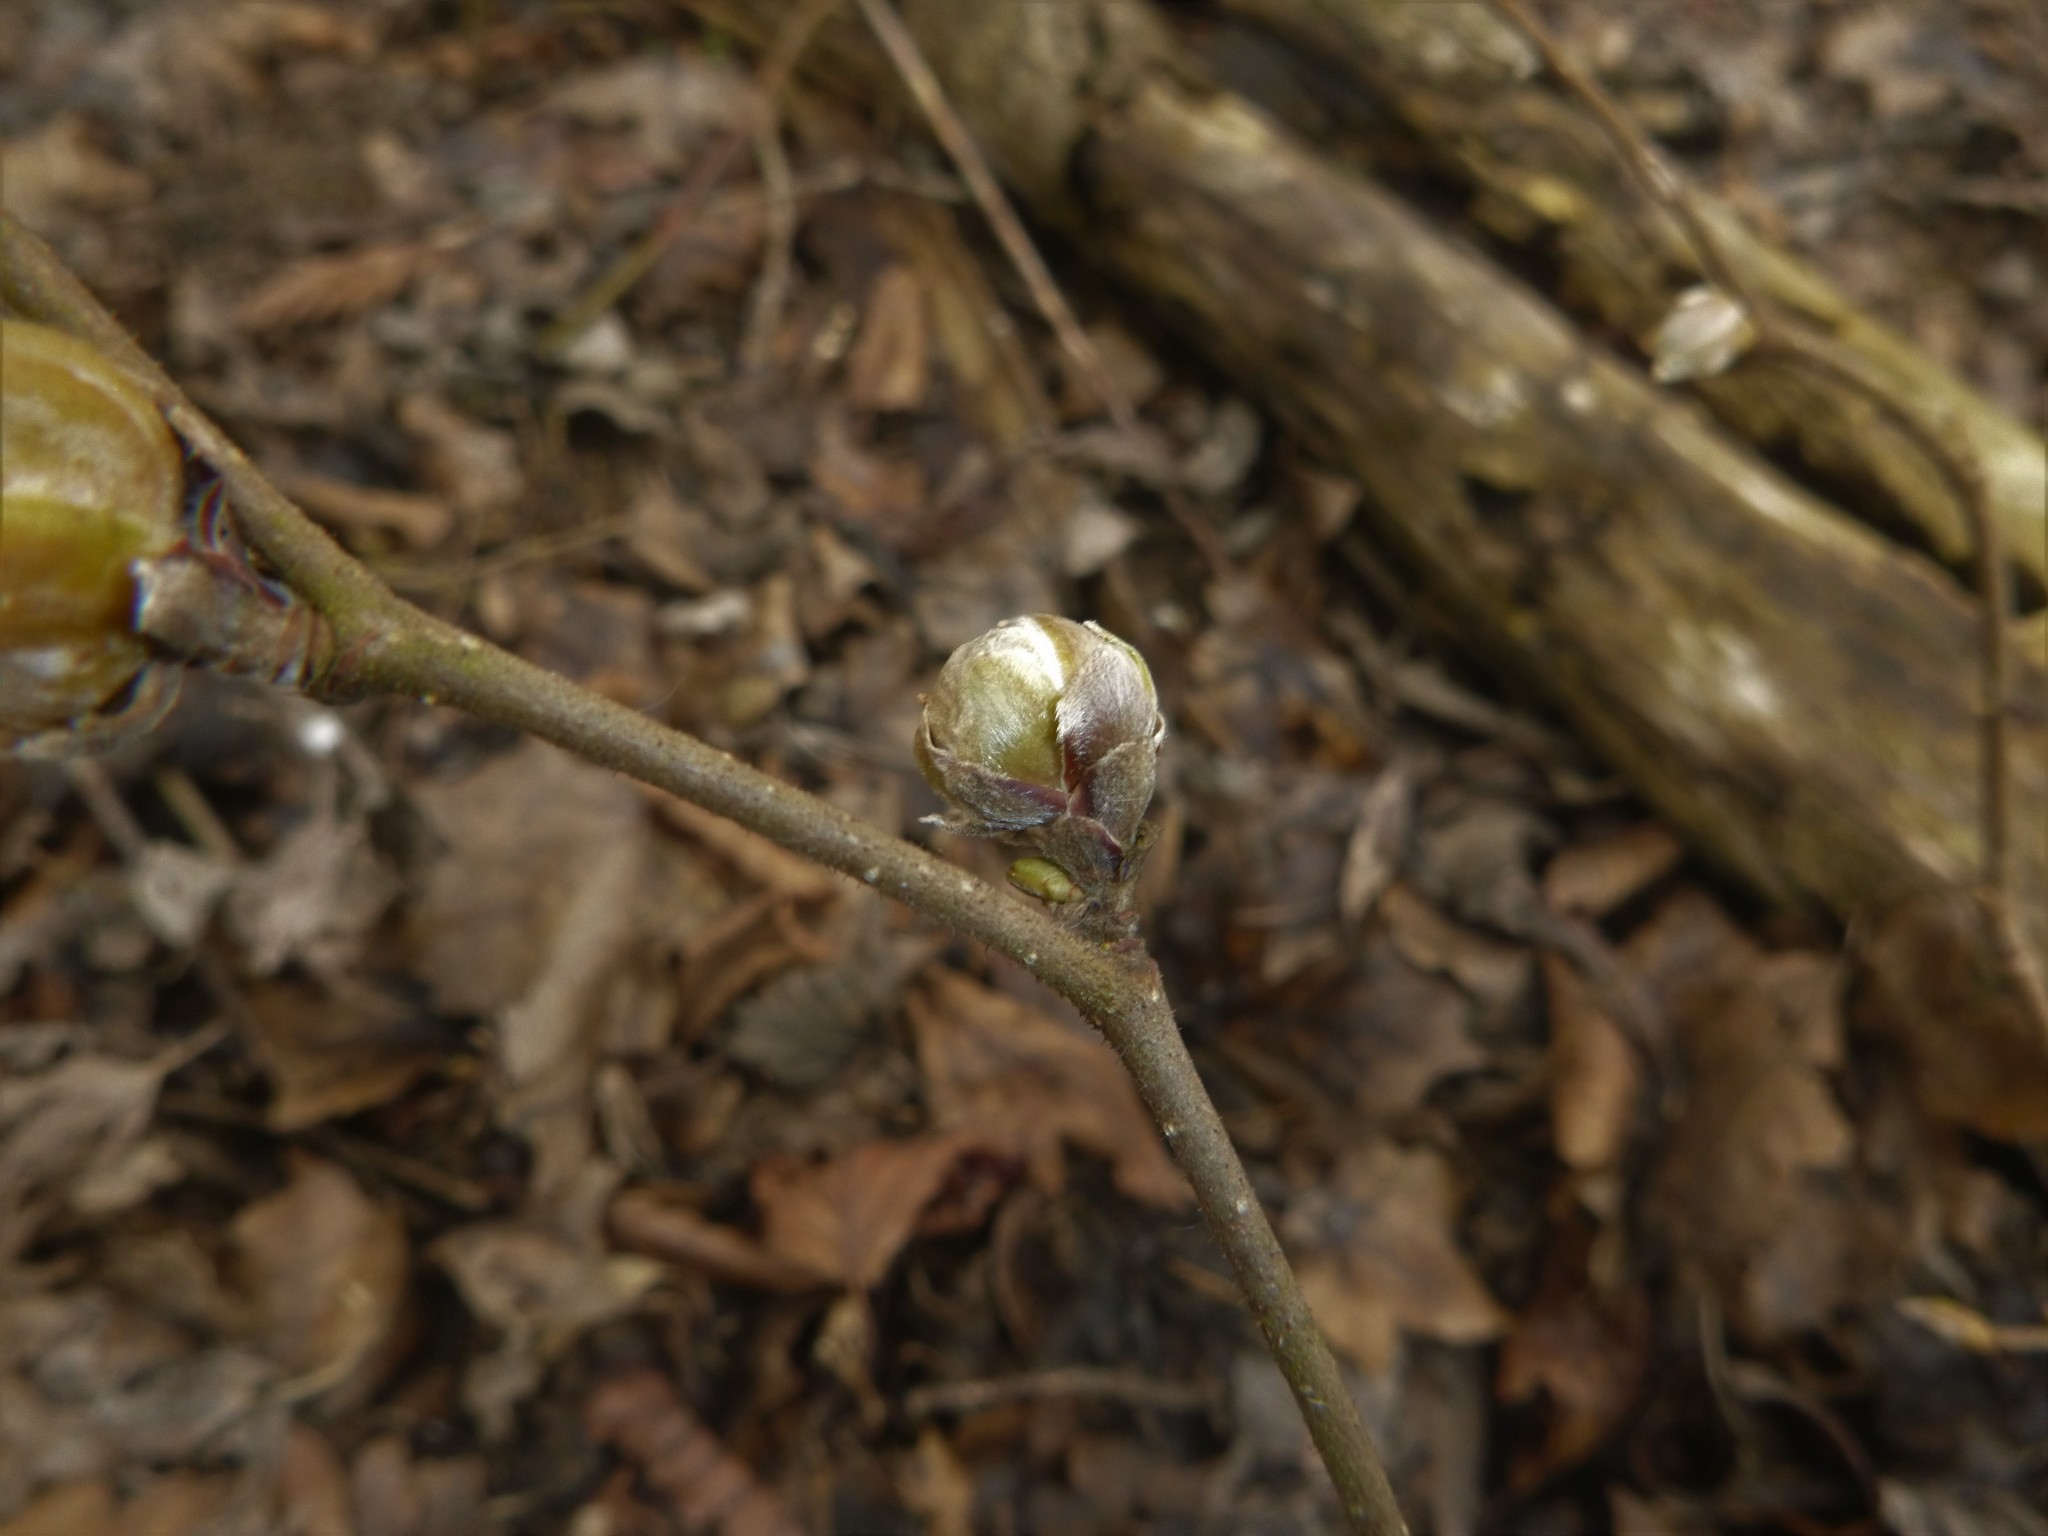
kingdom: Animalia
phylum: Arthropoda
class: Arachnida
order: Trombidiformes
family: Phytoptidae
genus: Phytoptus
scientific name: Phytoptus avellanae
